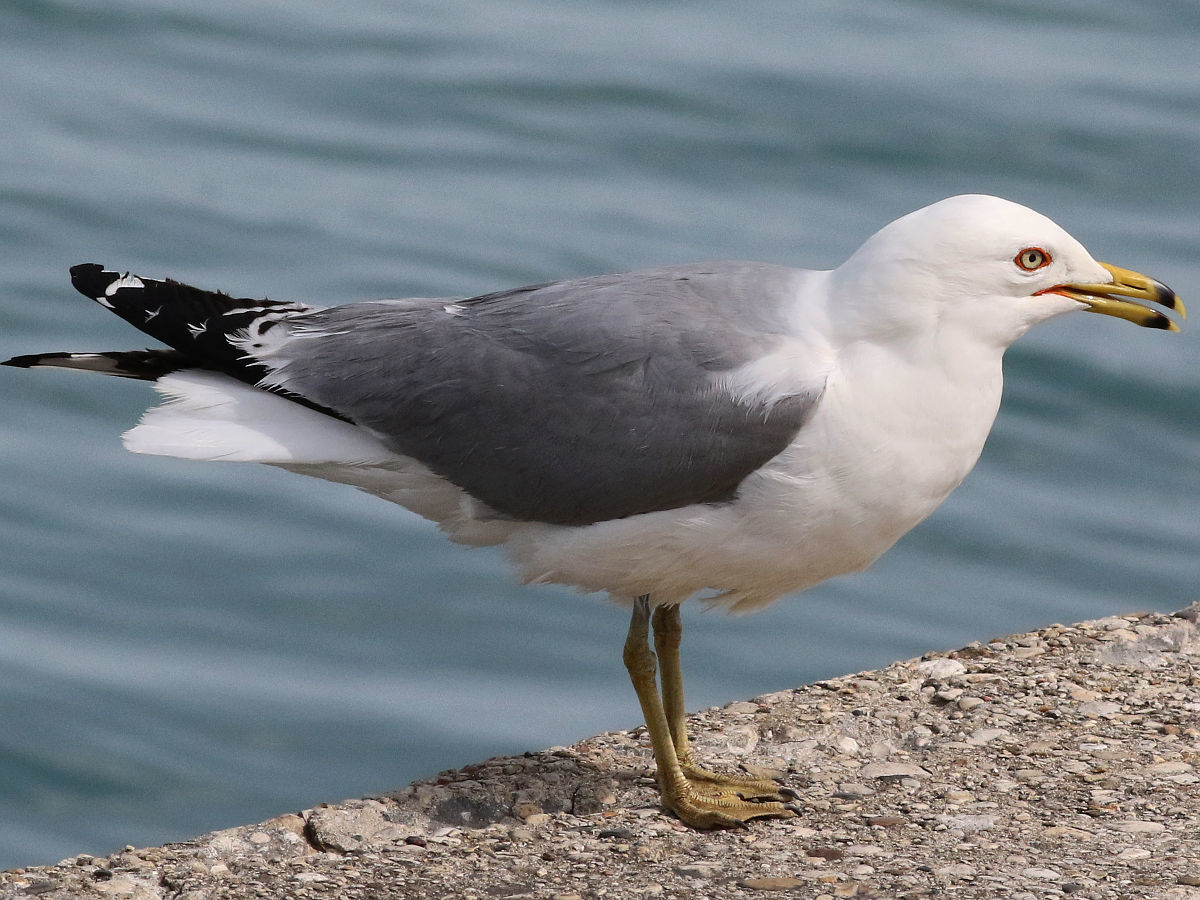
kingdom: Animalia
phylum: Chordata
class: Aves
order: Charadriiformes
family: Laridae
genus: Larus
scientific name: Larus delawarensis
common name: Ring-billed gull
